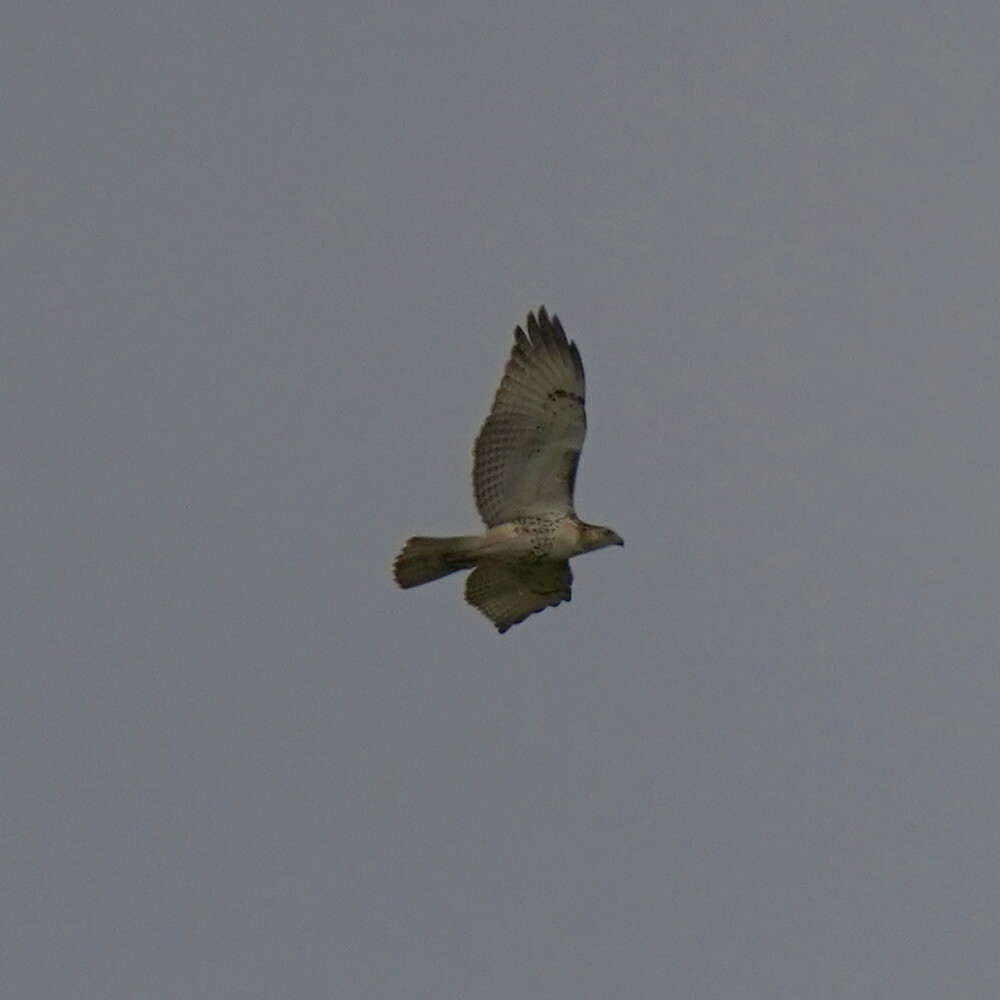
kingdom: Animalia
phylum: Chordata
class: Aves
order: Accipitriformes
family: Accipitridae
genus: Buteo
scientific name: Buteo jamaicensis
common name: Red-tailed hawk
